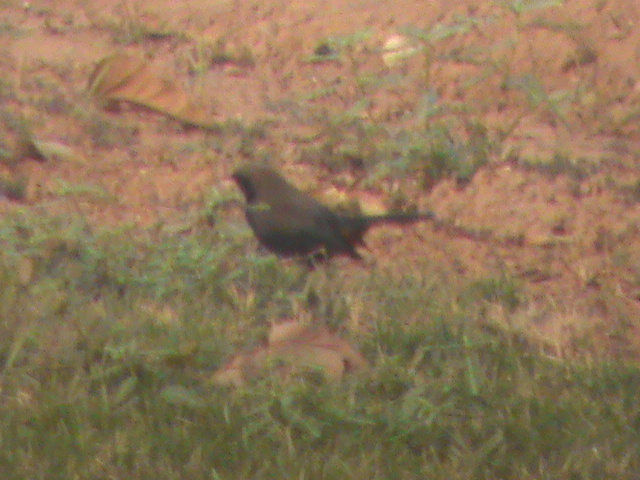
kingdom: Animalia
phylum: Chordata
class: Aves
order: Passeriformes
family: Muscicapidae
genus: Saxicoloides
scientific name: Saxicoloides fulicatus
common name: Indian robin
